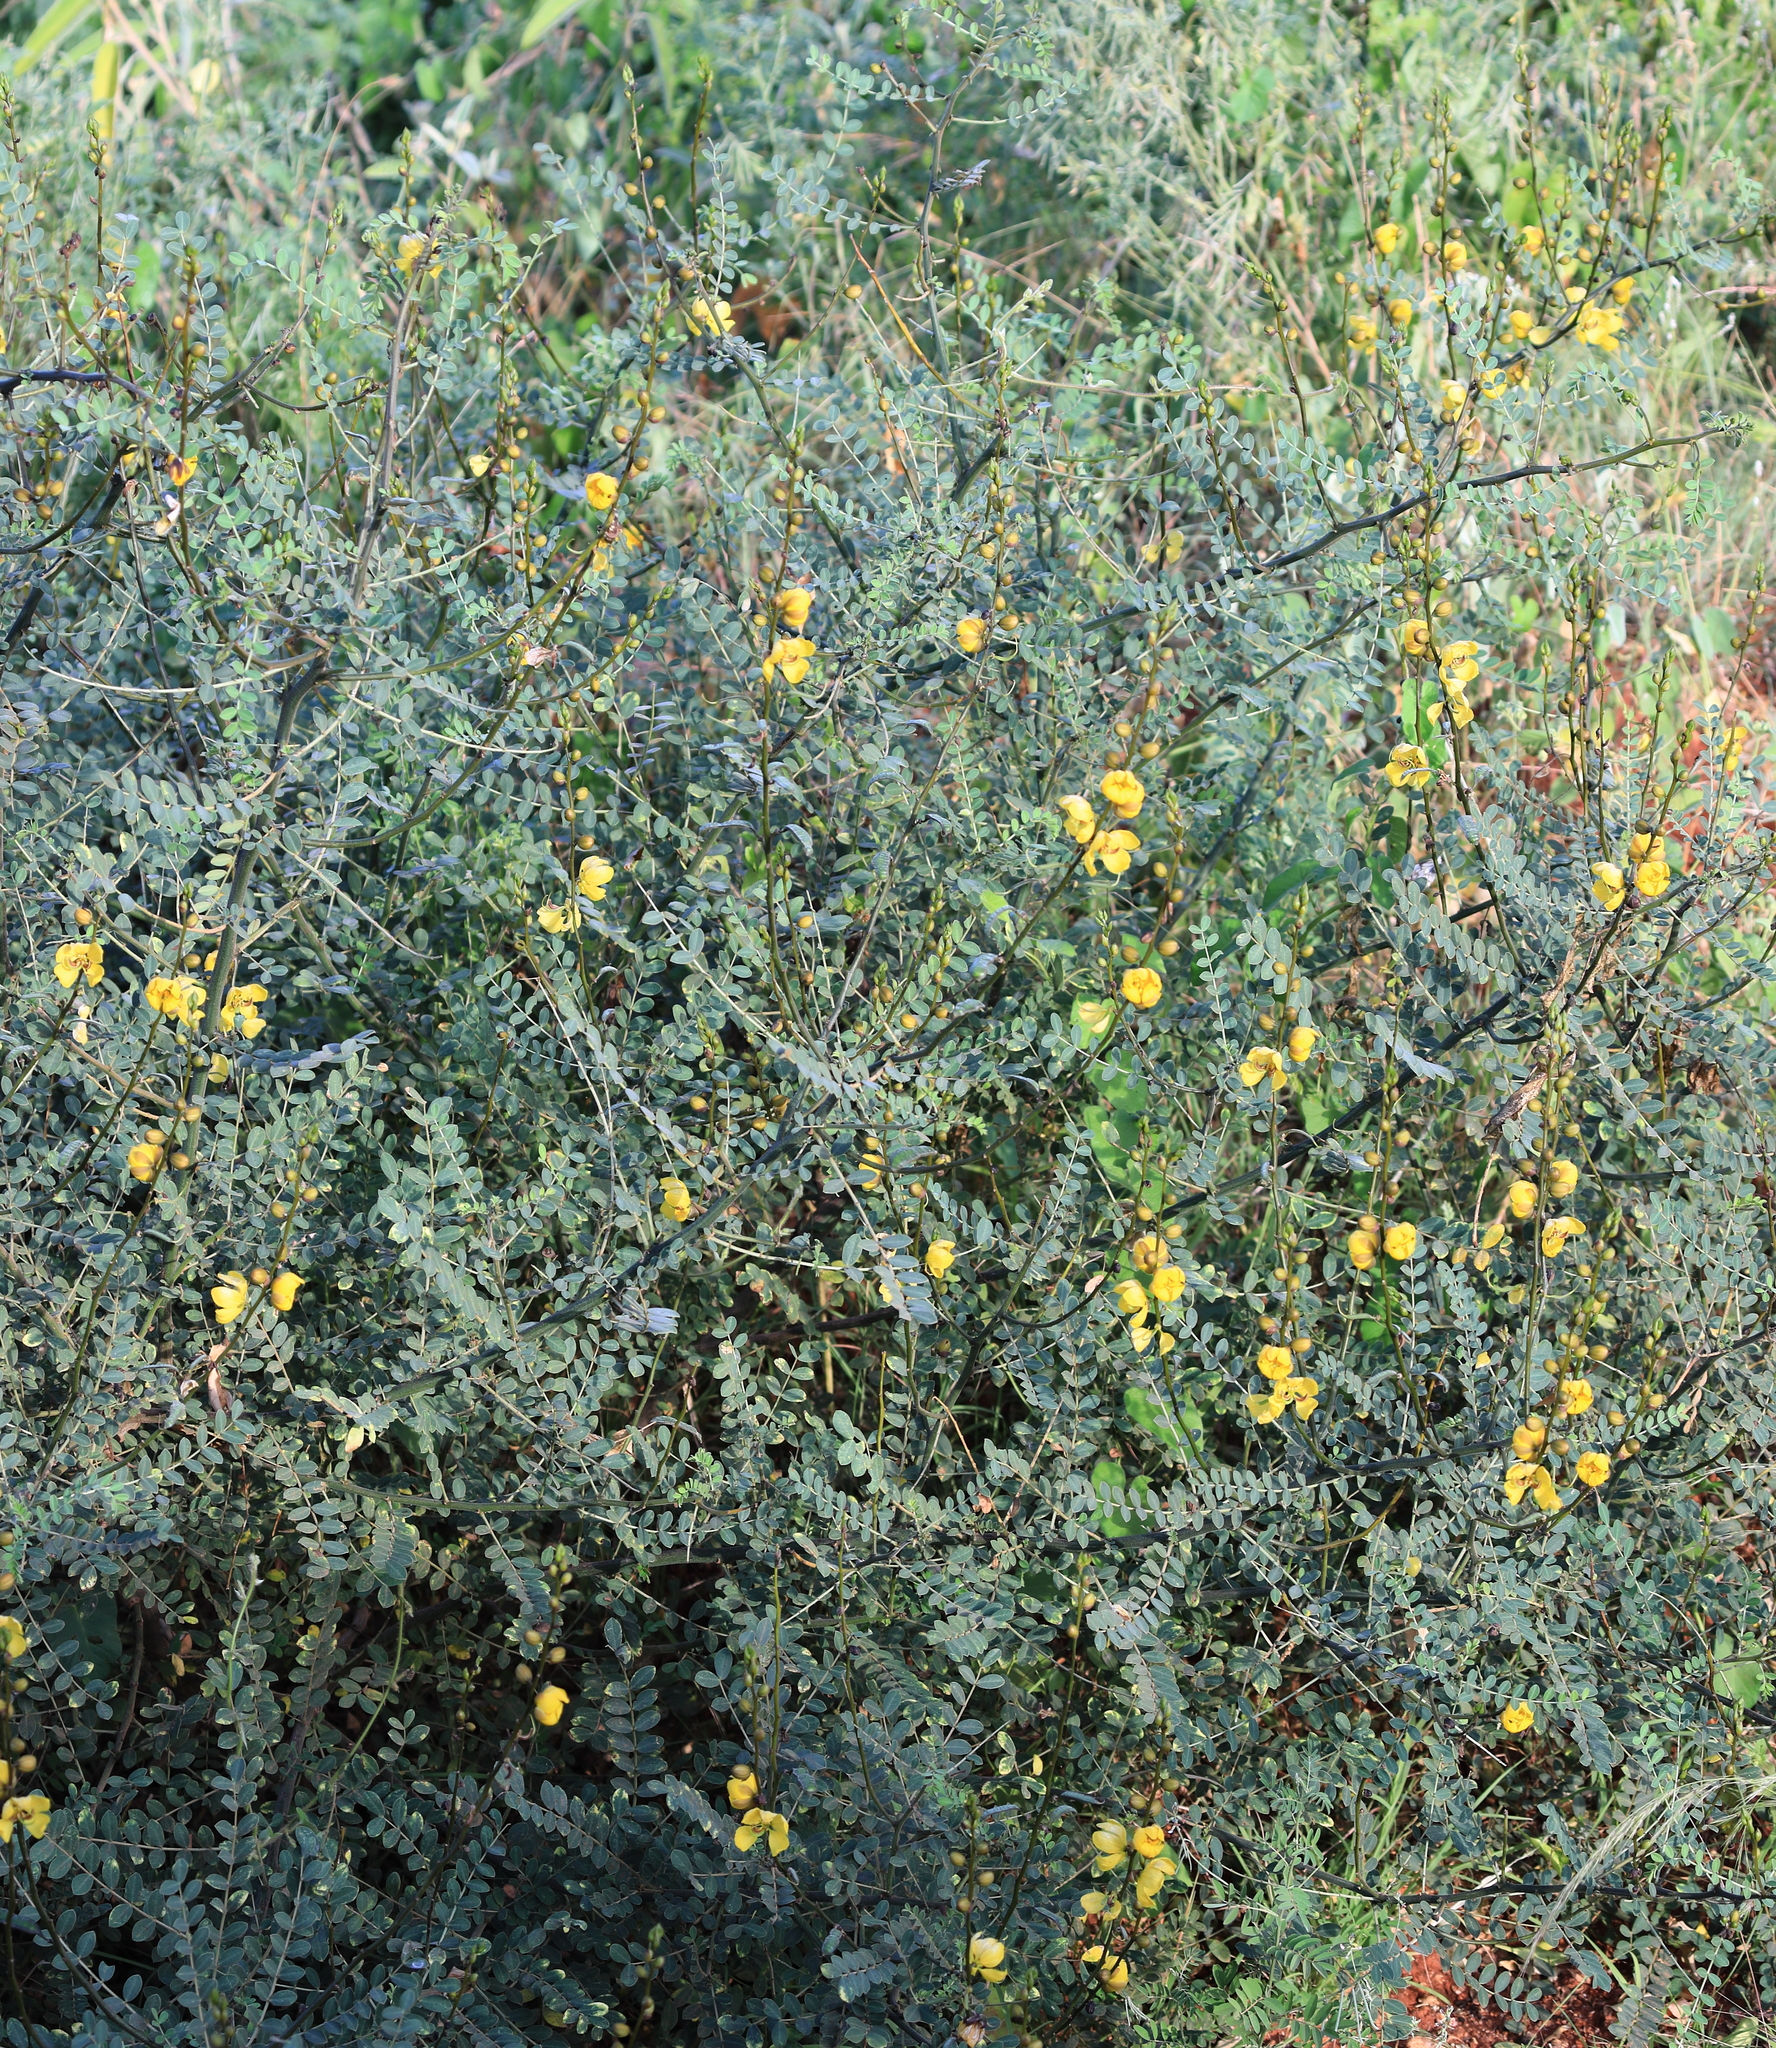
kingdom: Plantae
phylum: Tracheophyta
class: Magnoliopsida
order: Fabales
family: Fabaceae
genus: Senna
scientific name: Senna didymobotrya
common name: African senna
